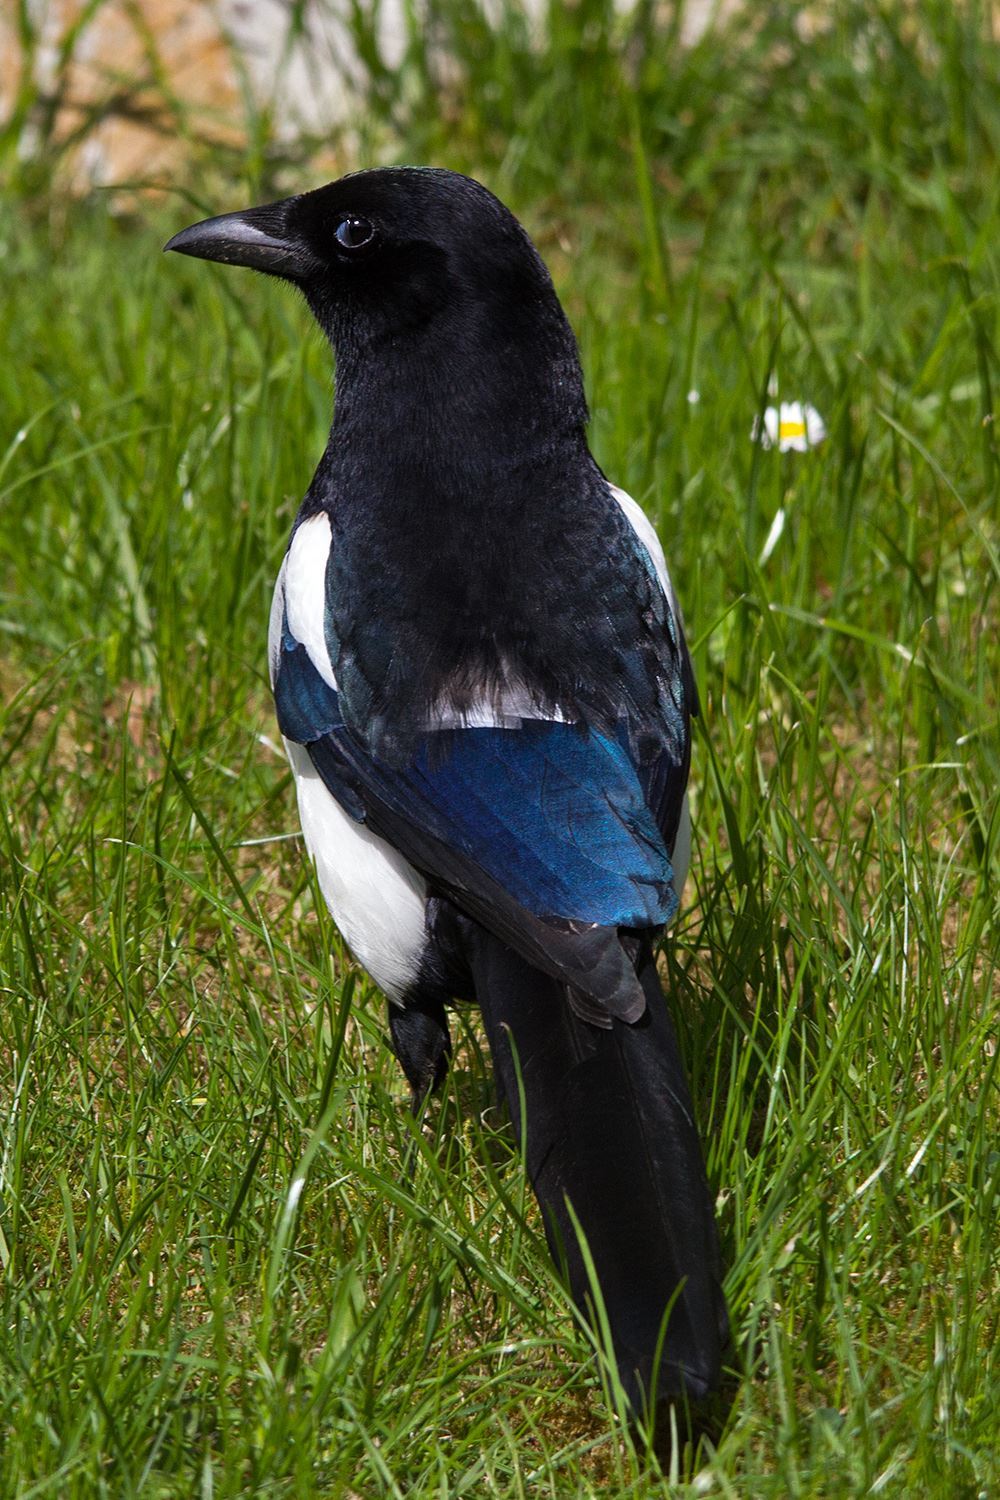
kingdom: Animalia
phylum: Chordata
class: Aves
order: Passeriformes
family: Corvidae
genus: Pica
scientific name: Pica pica
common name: Eurasian magpie
